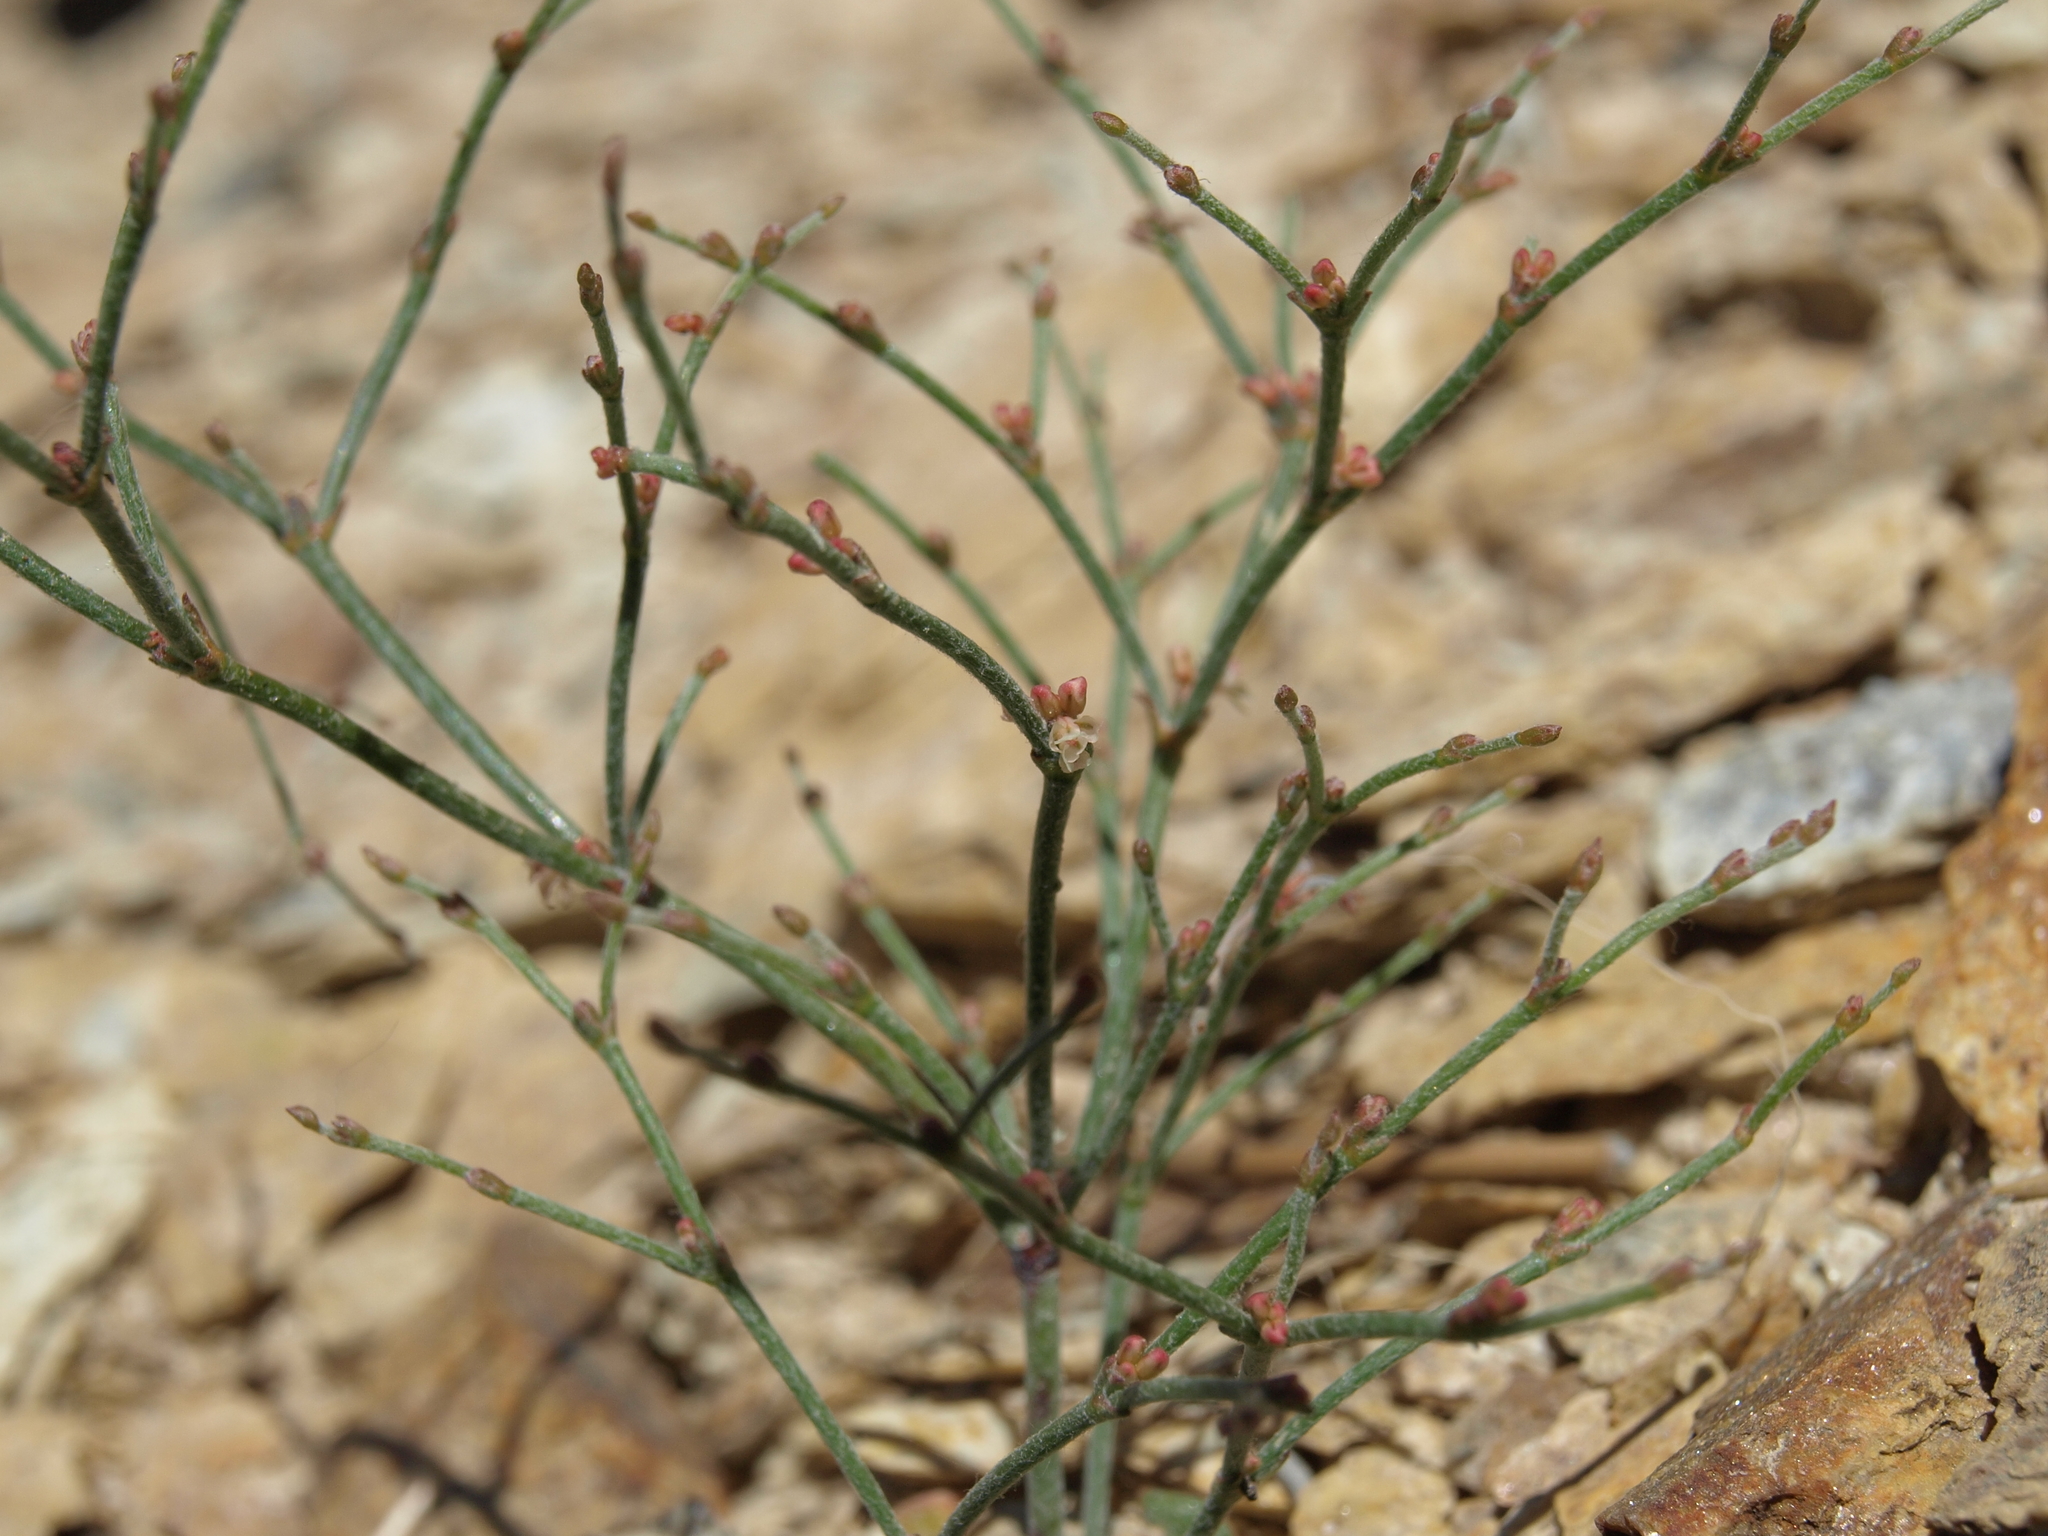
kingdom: Plantae
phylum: Tracheophyta
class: Magnoliopsida
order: Caryophyllales
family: Polygonaceae
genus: Eriogonum
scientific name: Eriogonum palmerianum
